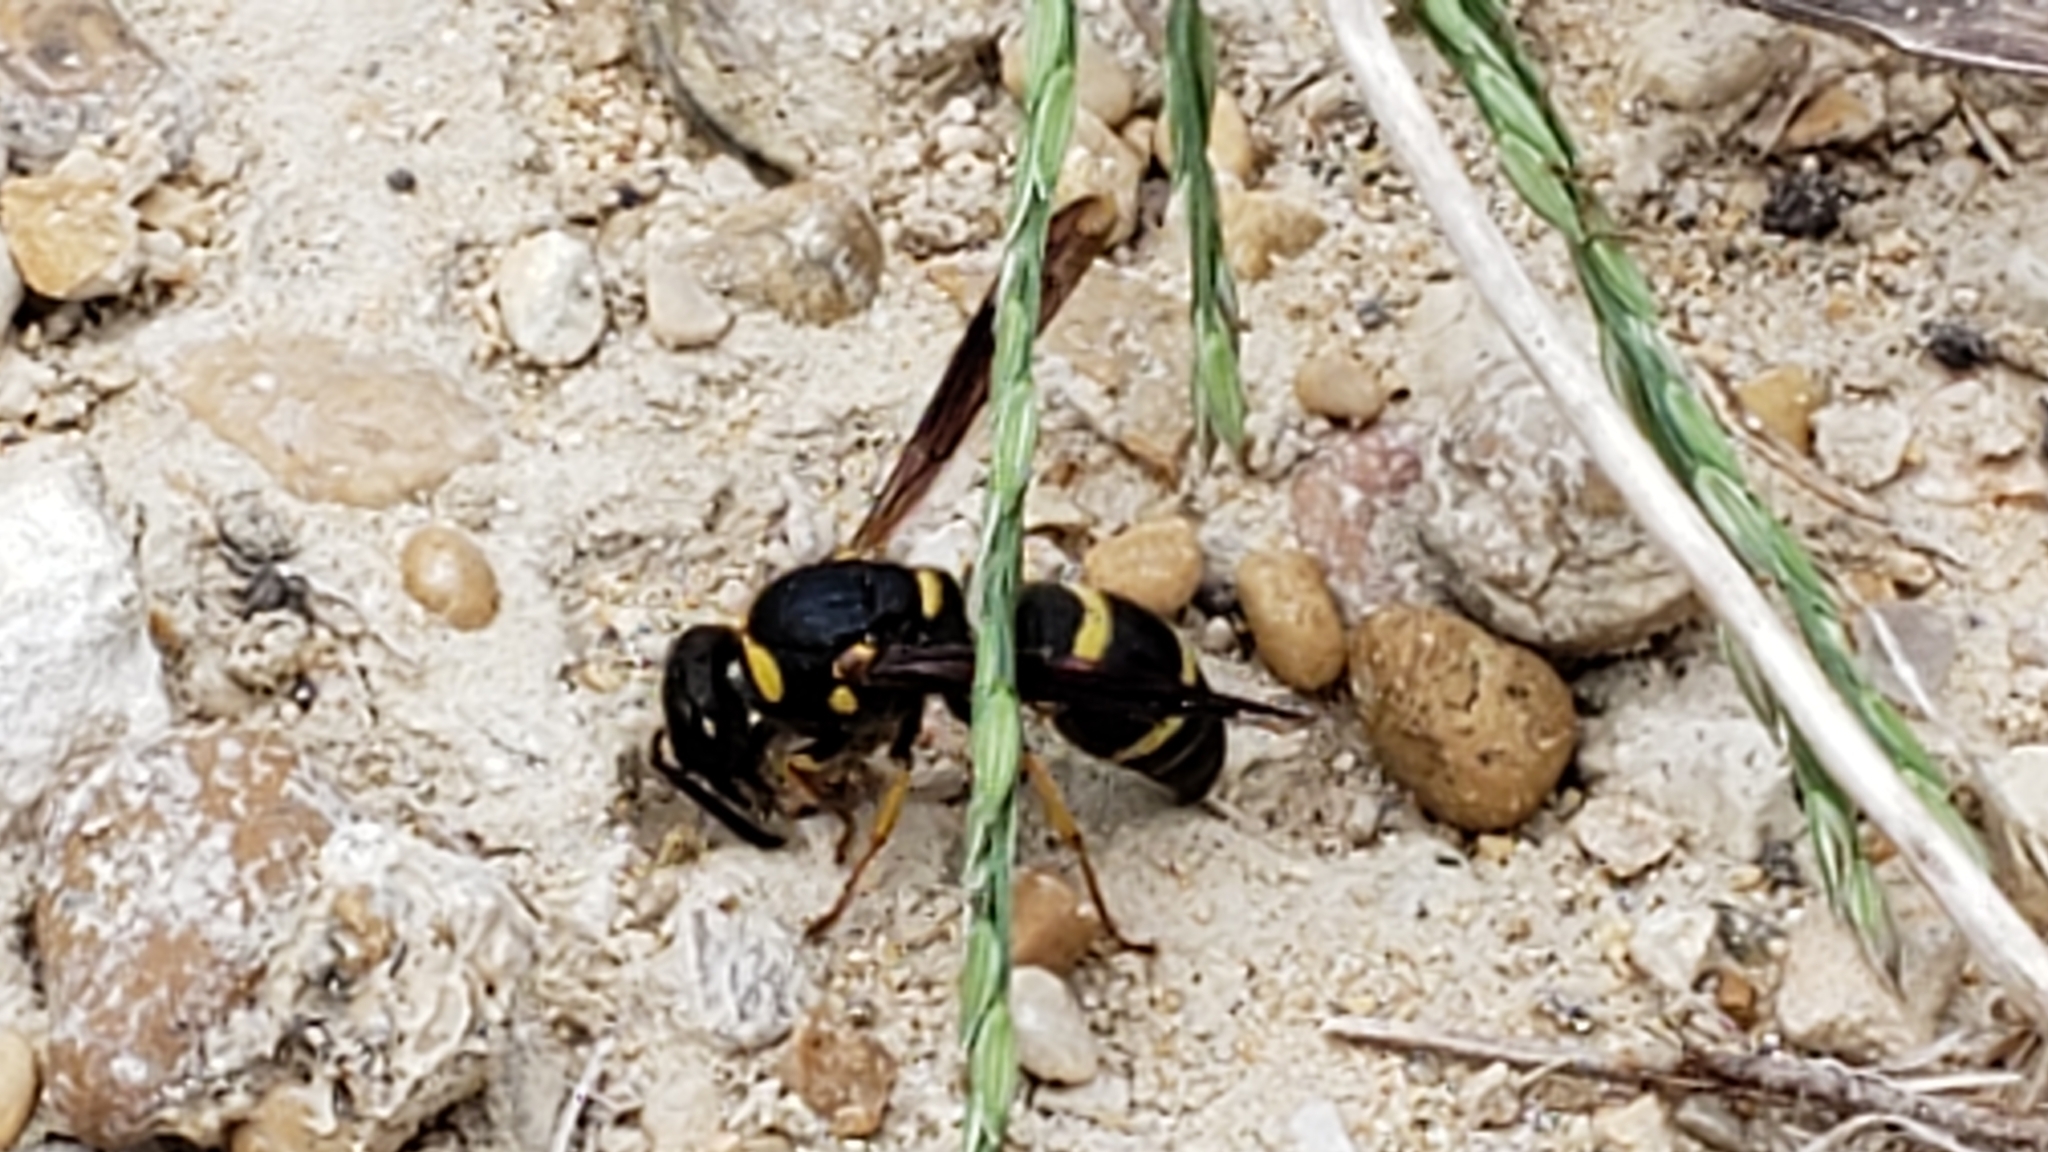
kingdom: Animalia
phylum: Arthropoda
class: Insecta
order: Hymenoptera
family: Eumenidae
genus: Euodynerus
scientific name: Euodynerus foraminatus
